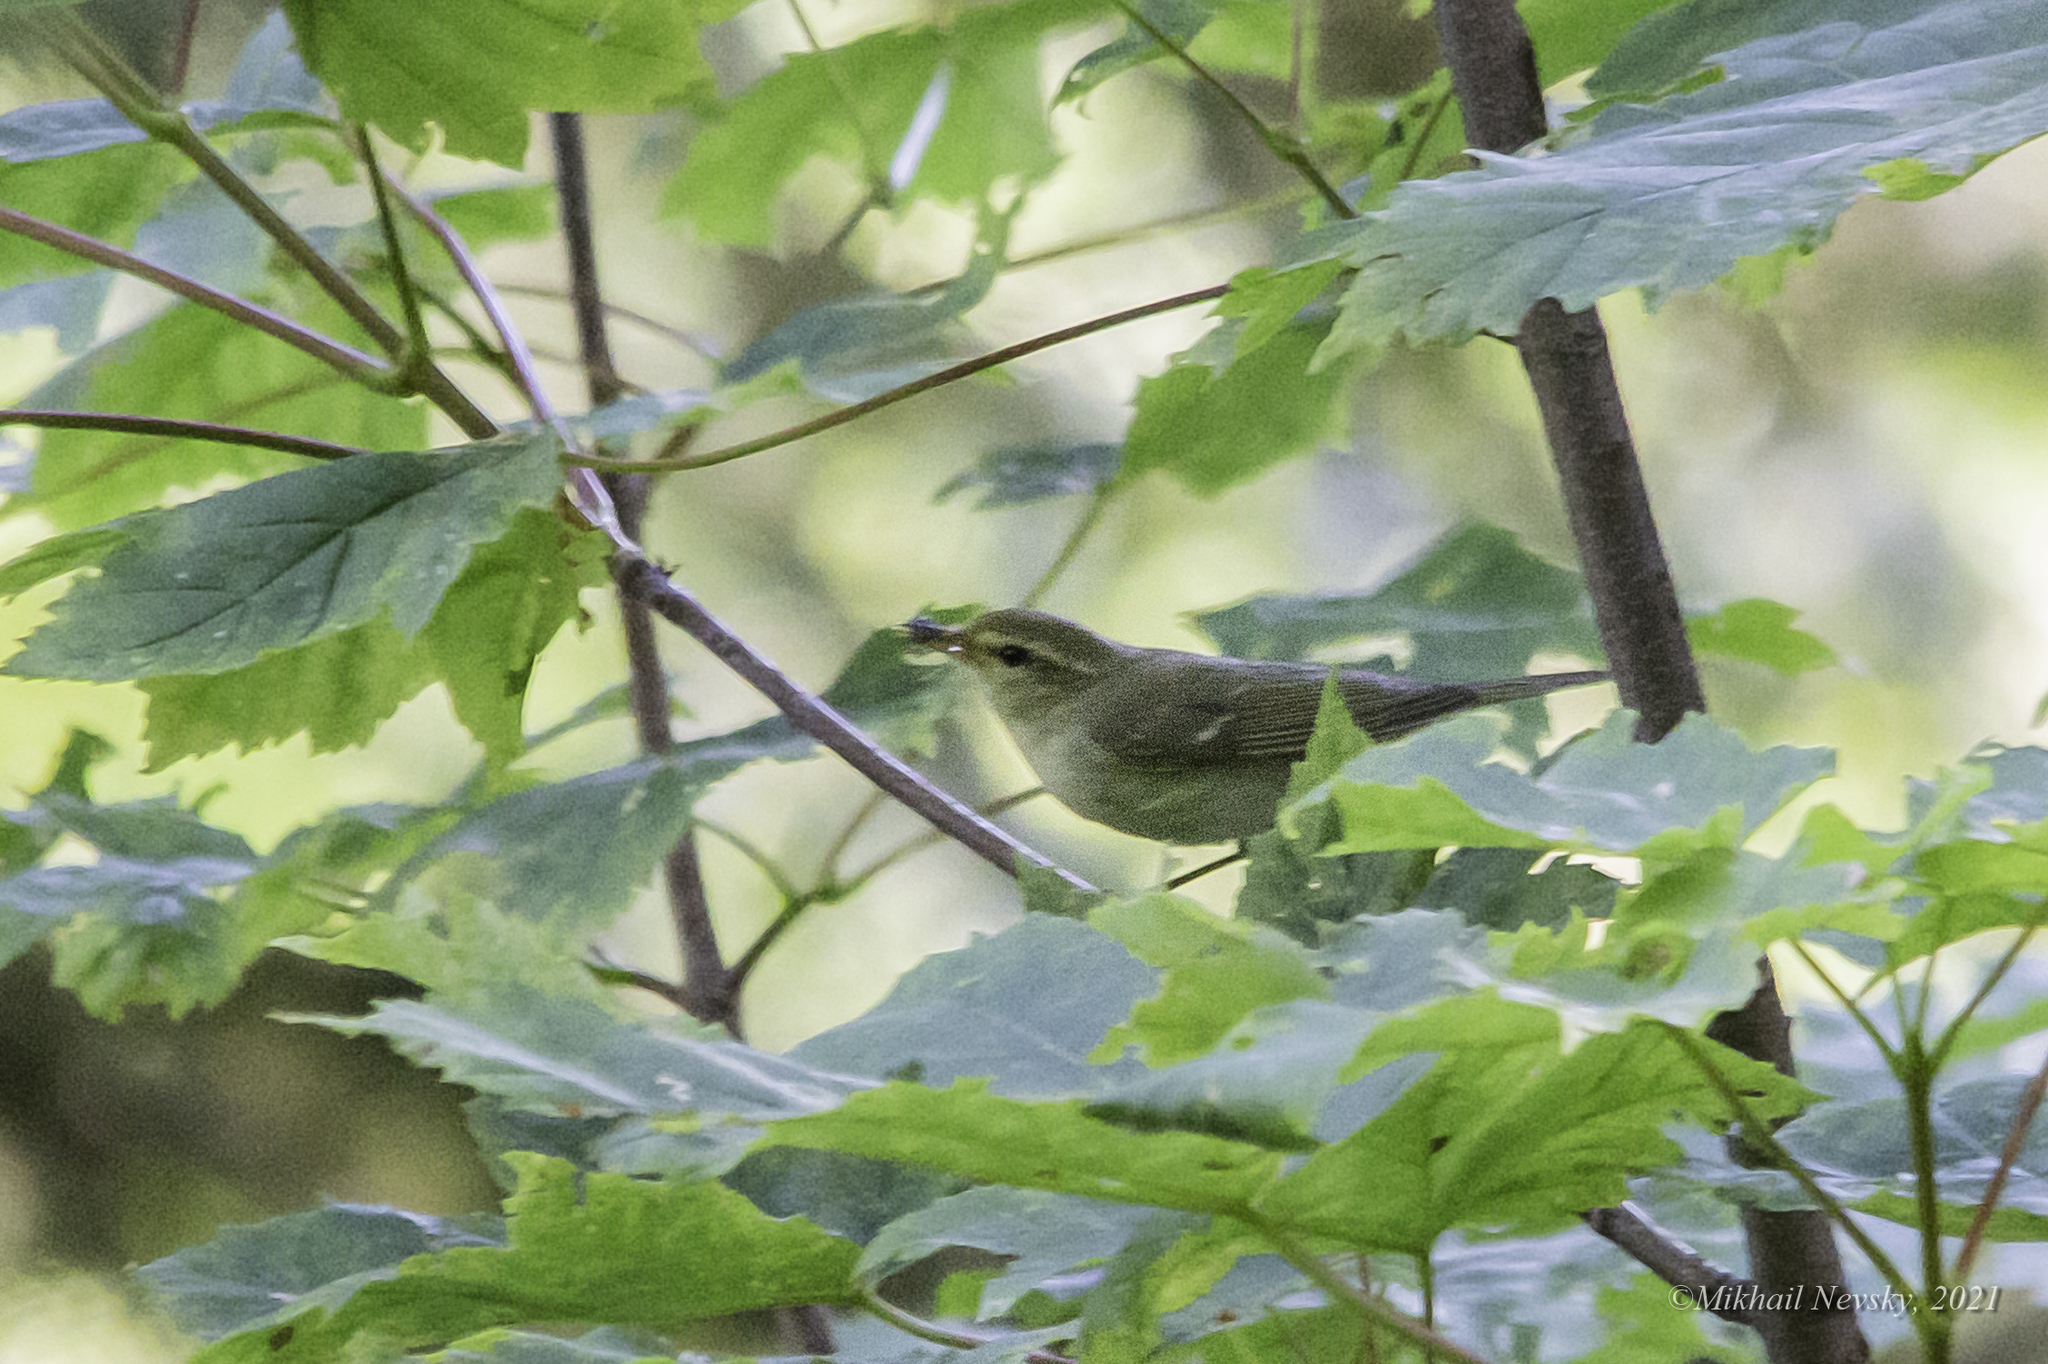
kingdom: Animalia
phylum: Chordata
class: Aves
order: Passeriformes
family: Phylloscopidae
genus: Phylloscopus
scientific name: Phylloscopus nitidus
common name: Green warbler
